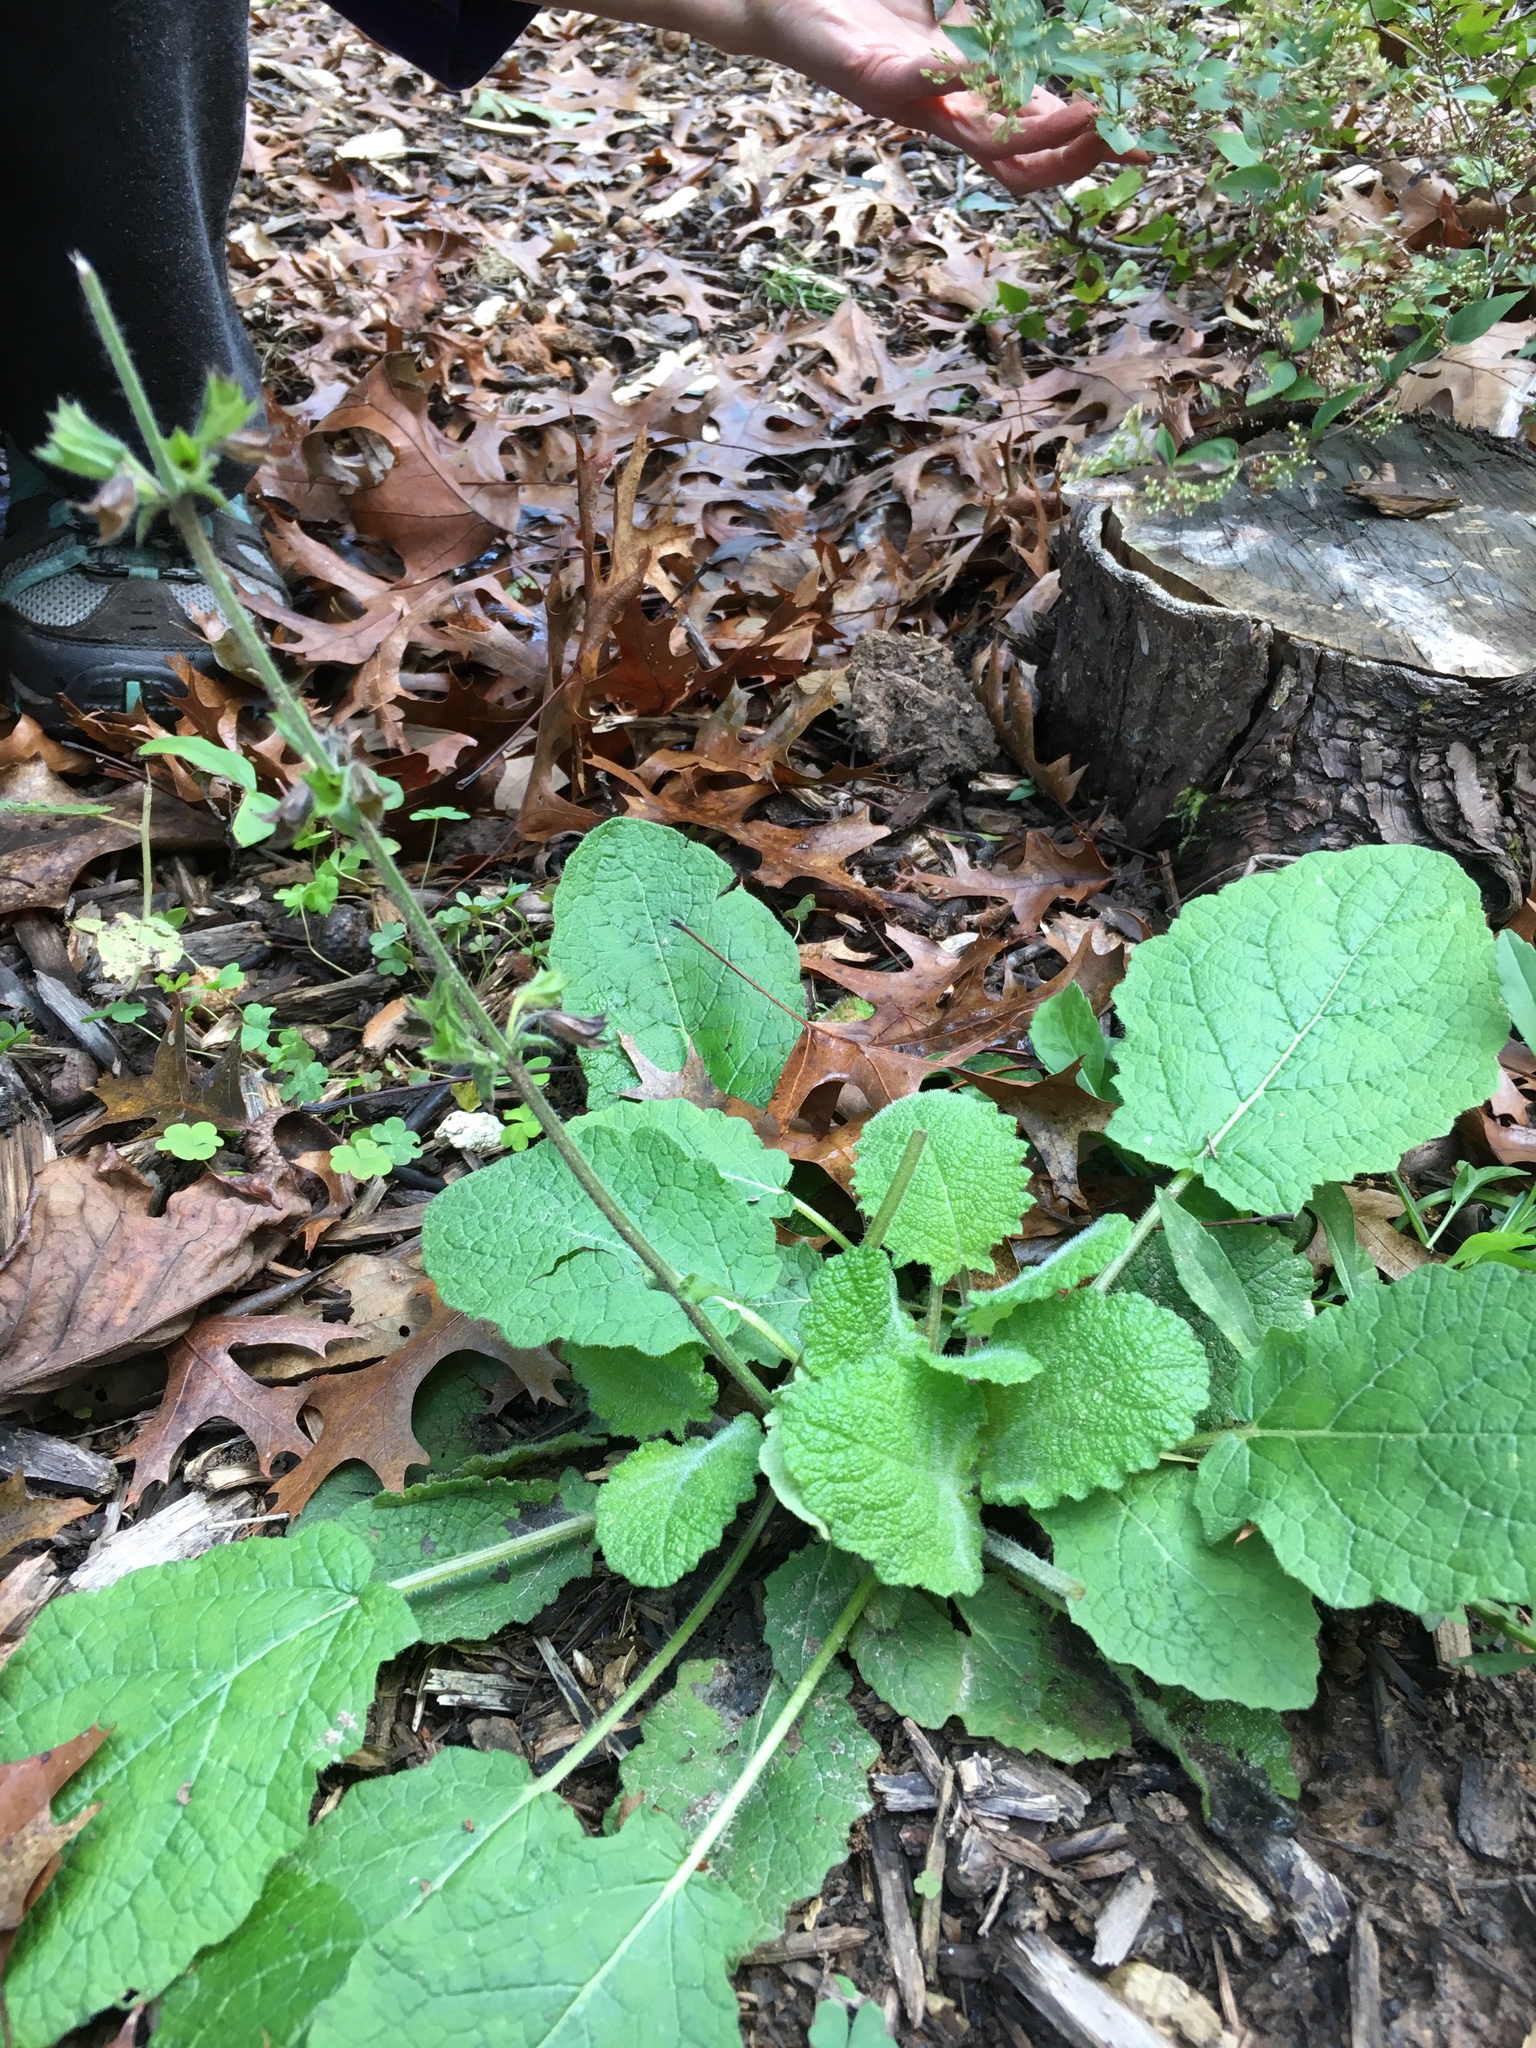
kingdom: Plantae
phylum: Tracheophyta
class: Magnoliopsida
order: Lamiales
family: Lamiaceae
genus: Salvia
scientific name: Salvia lyrata
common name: Cancerweed
